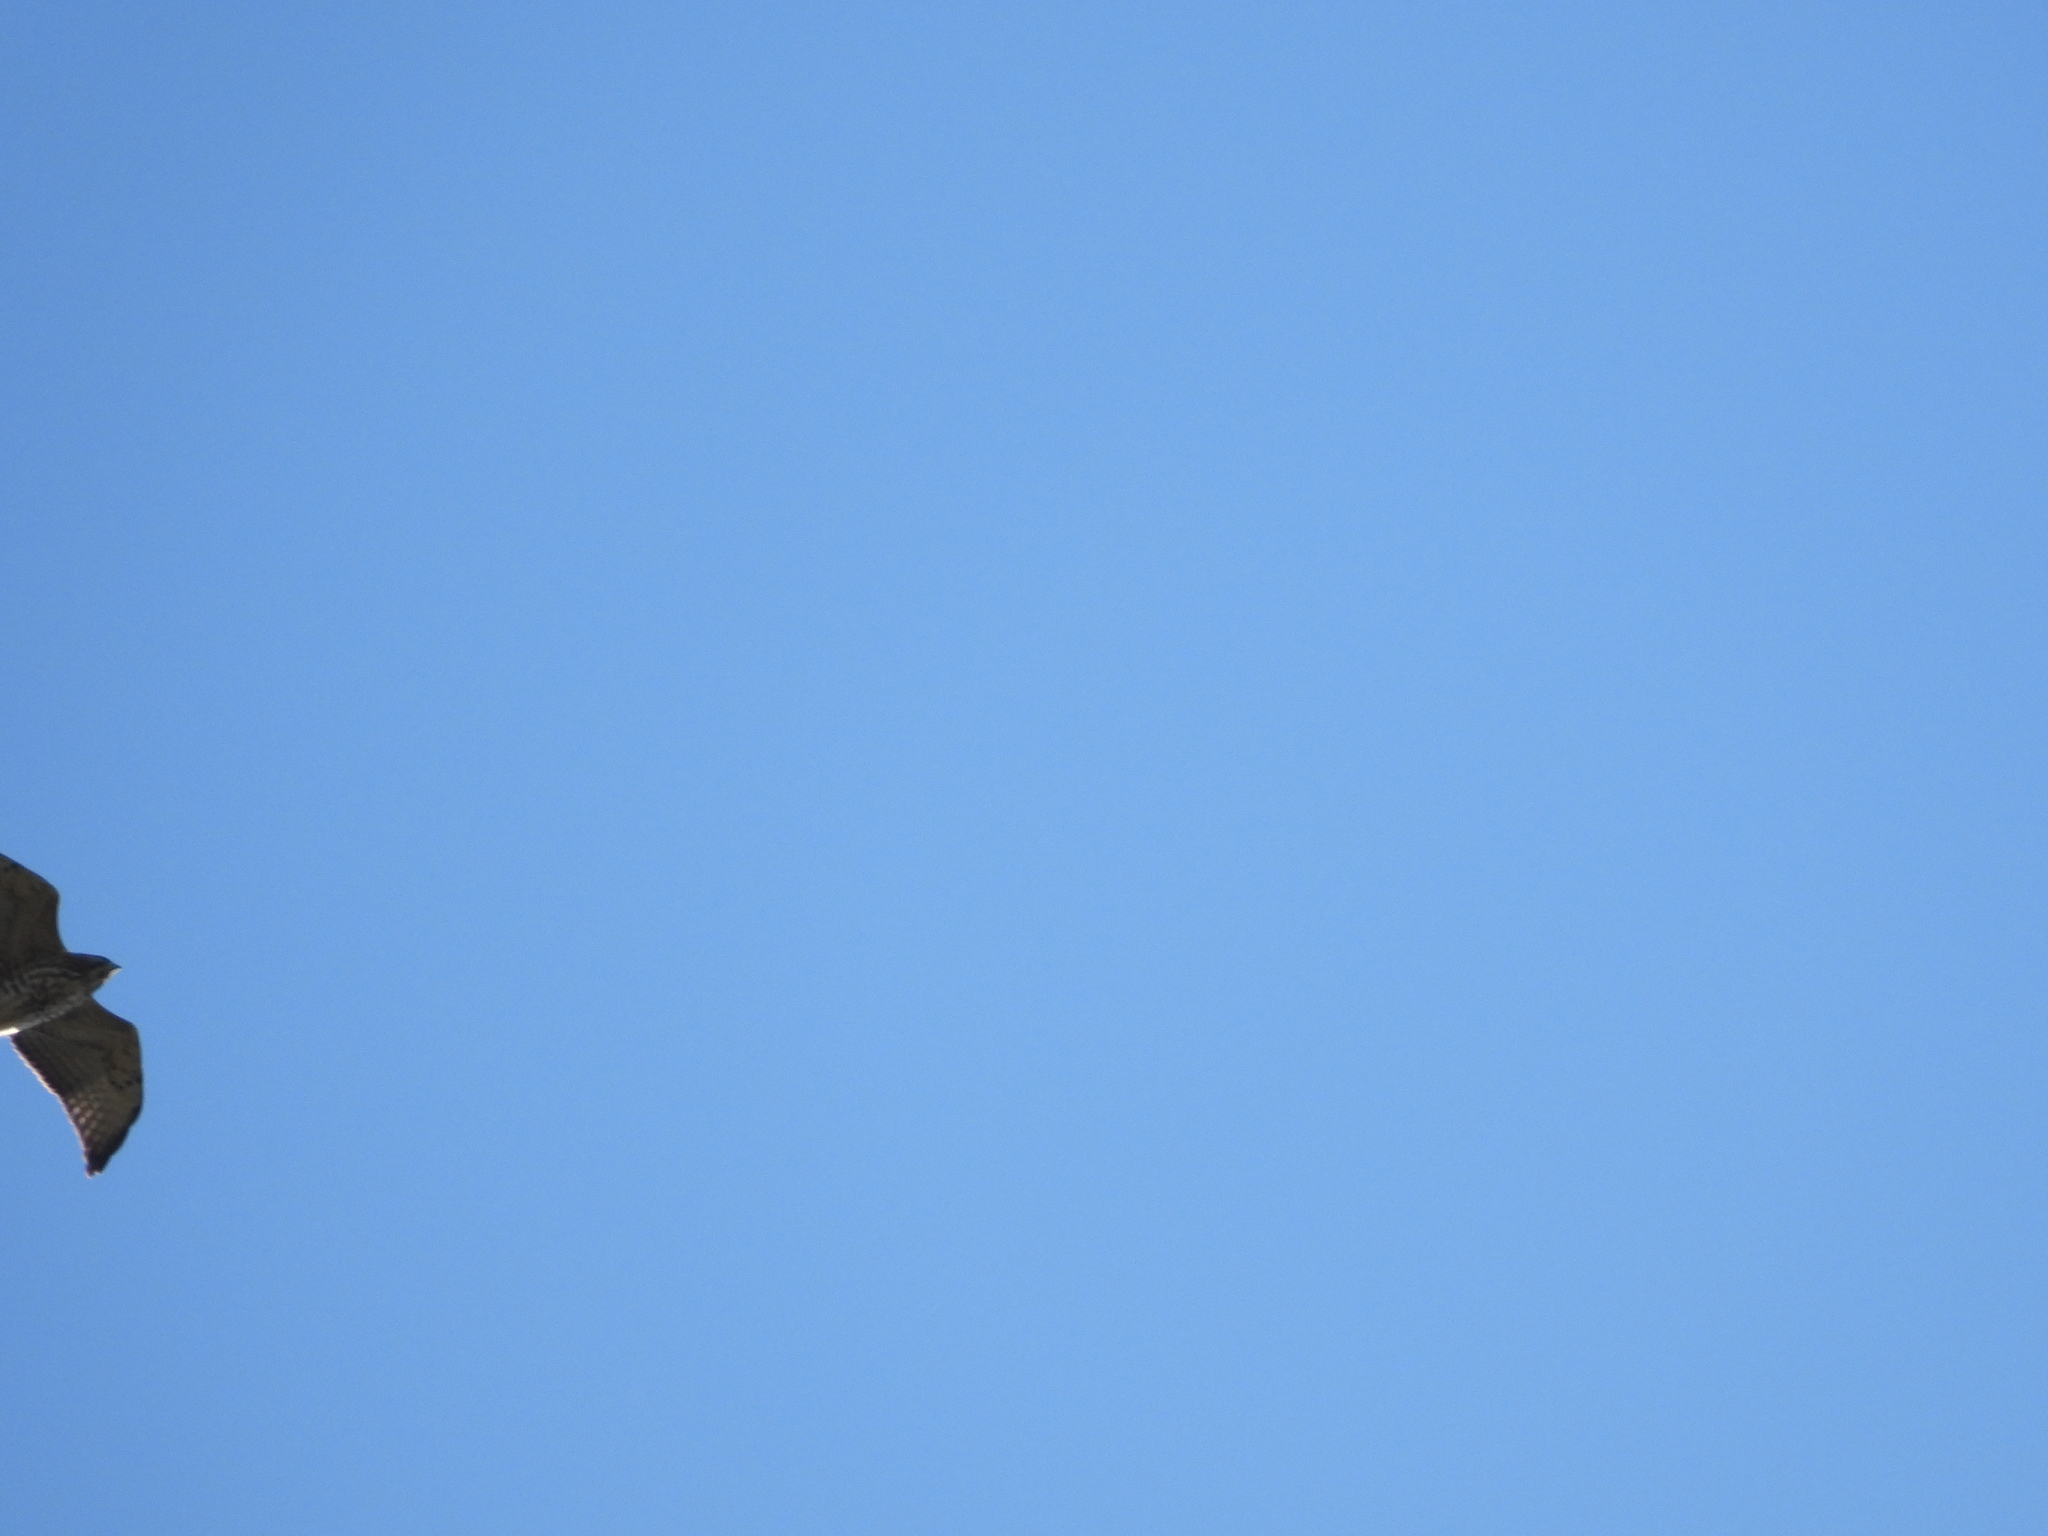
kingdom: Animalia
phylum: Chordata
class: Aves
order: Accipitriformes
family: Accipitridae
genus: Buteo
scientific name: Buteo platypterus
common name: Broad-winged hawk
